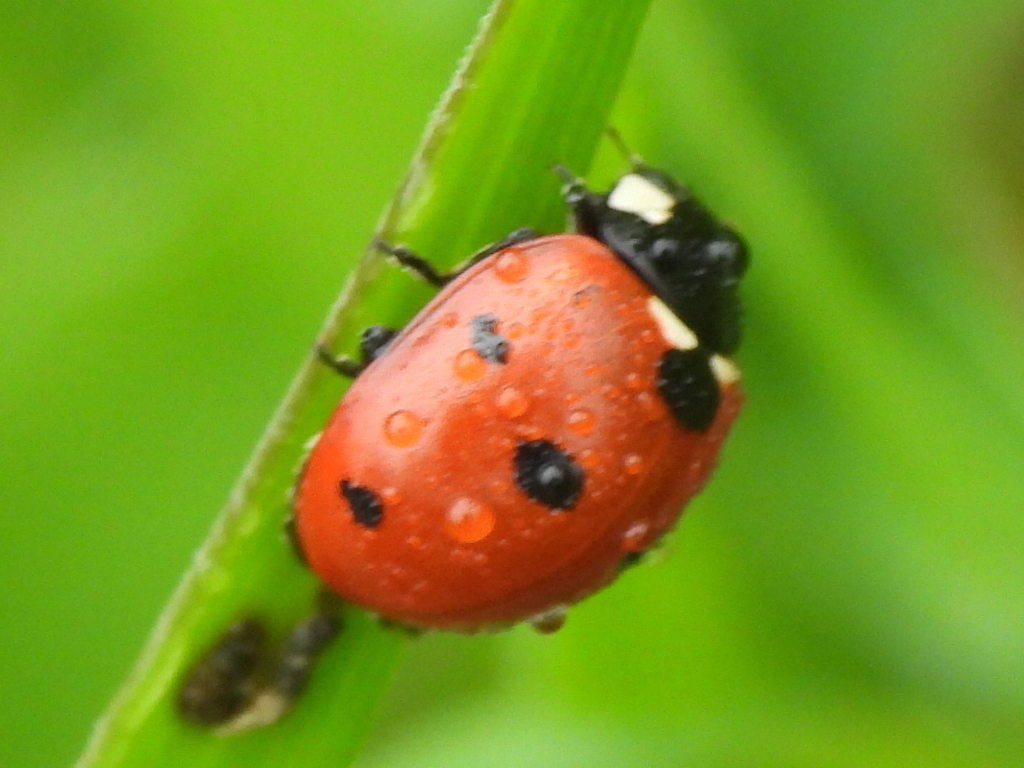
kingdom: Animalia
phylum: Arthropoda
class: Insecta
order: Coleoptera
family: Coccinellidae
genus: Coccinella
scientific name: Coccinella septempunctata
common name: Sevenspotted lady beetle
